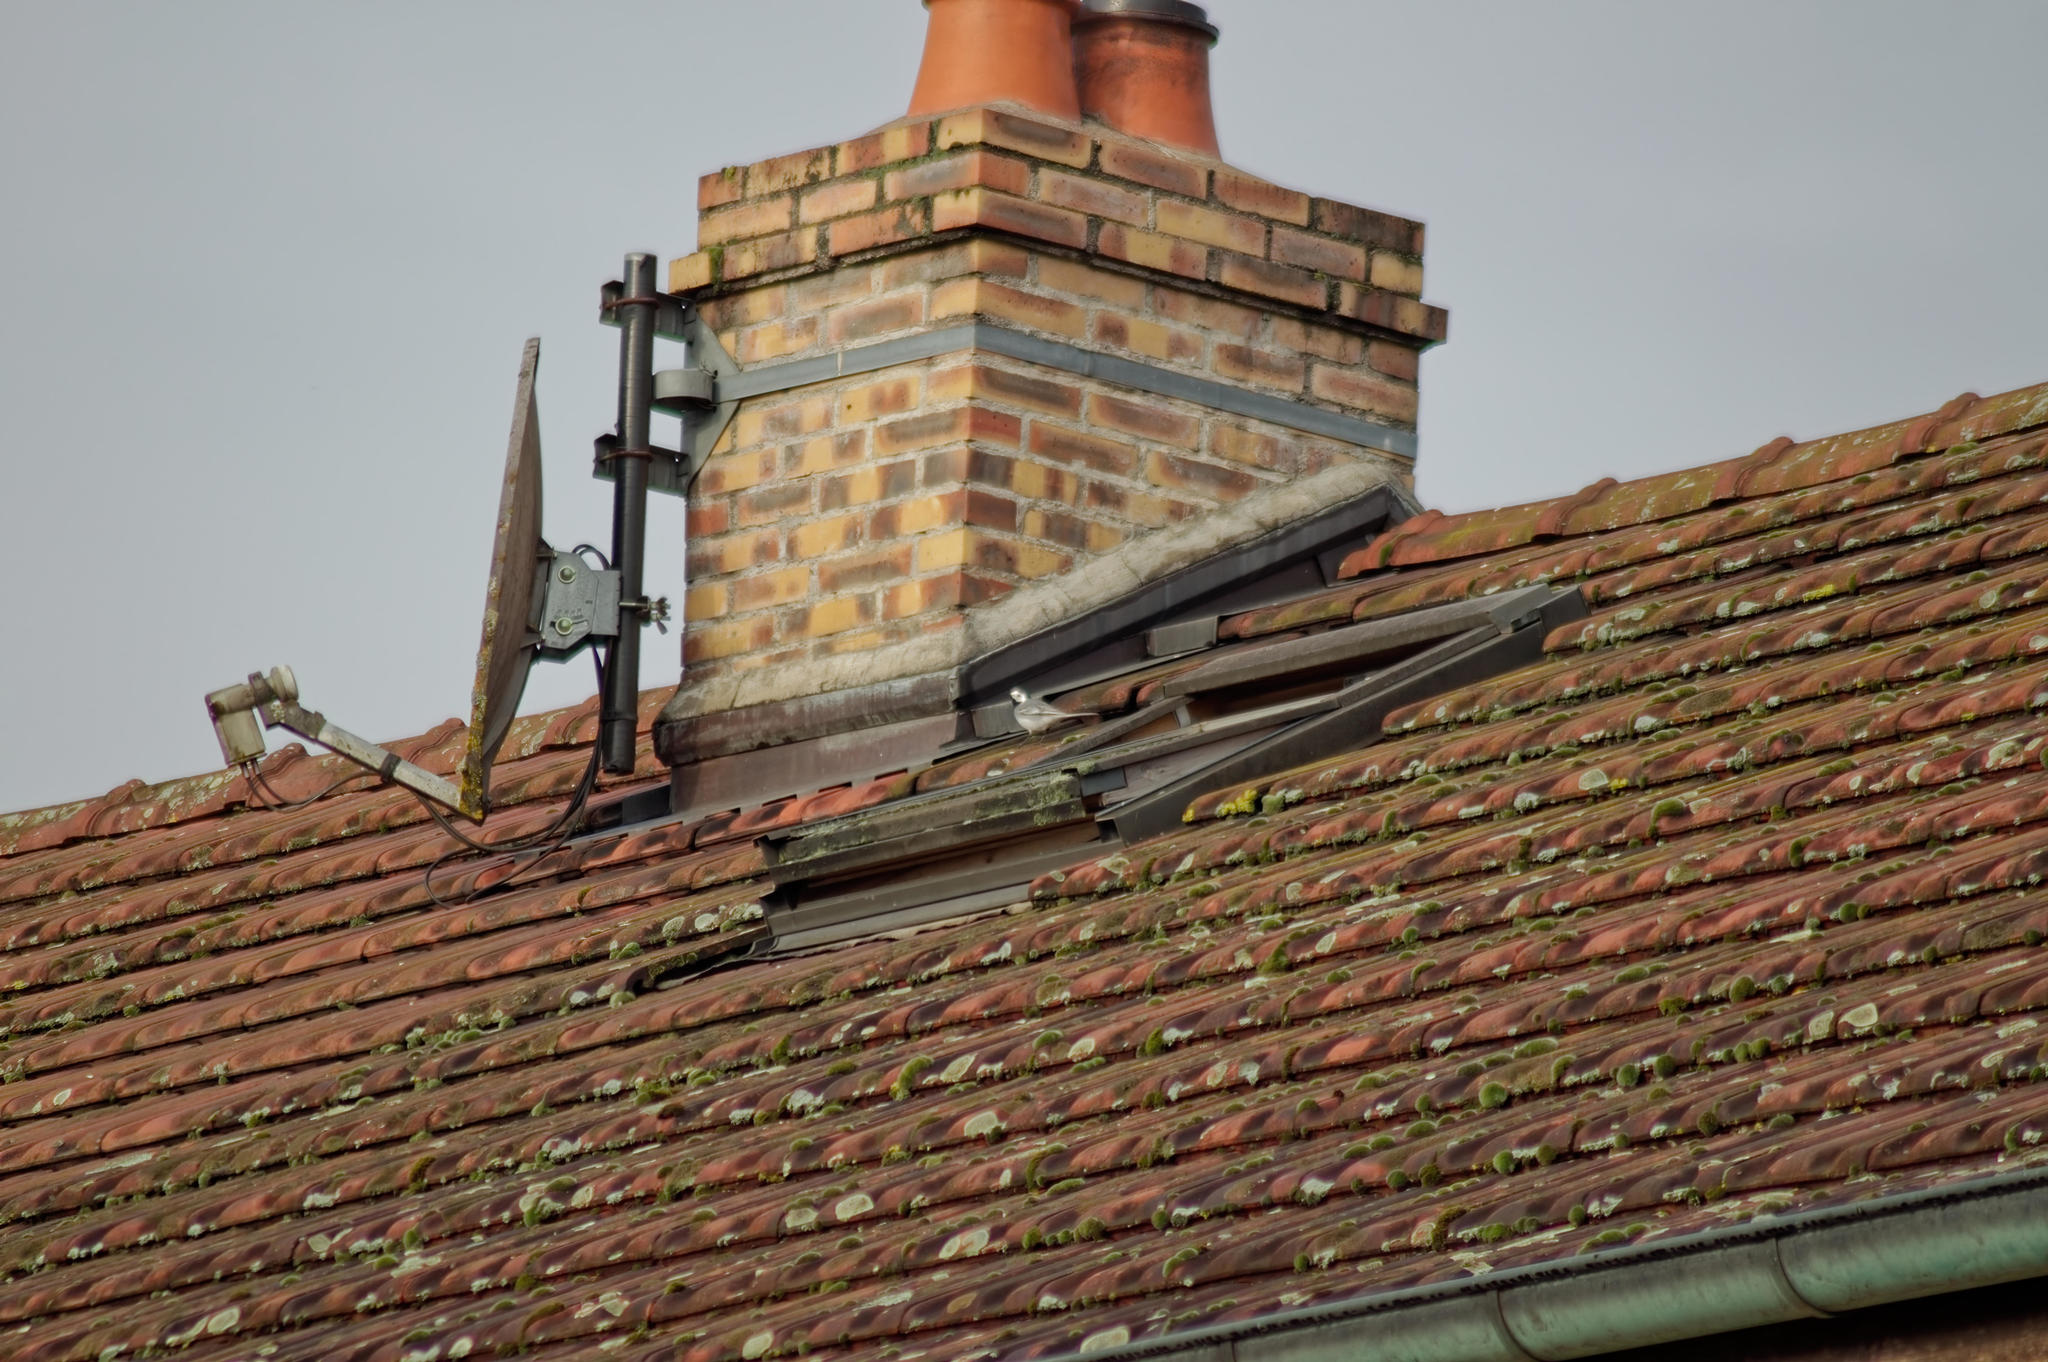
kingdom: Animalia
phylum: Chordata
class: Aves
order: Passeriformes
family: Motacillidae
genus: Motacilla
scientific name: Motacilla alba
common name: White wagtail
